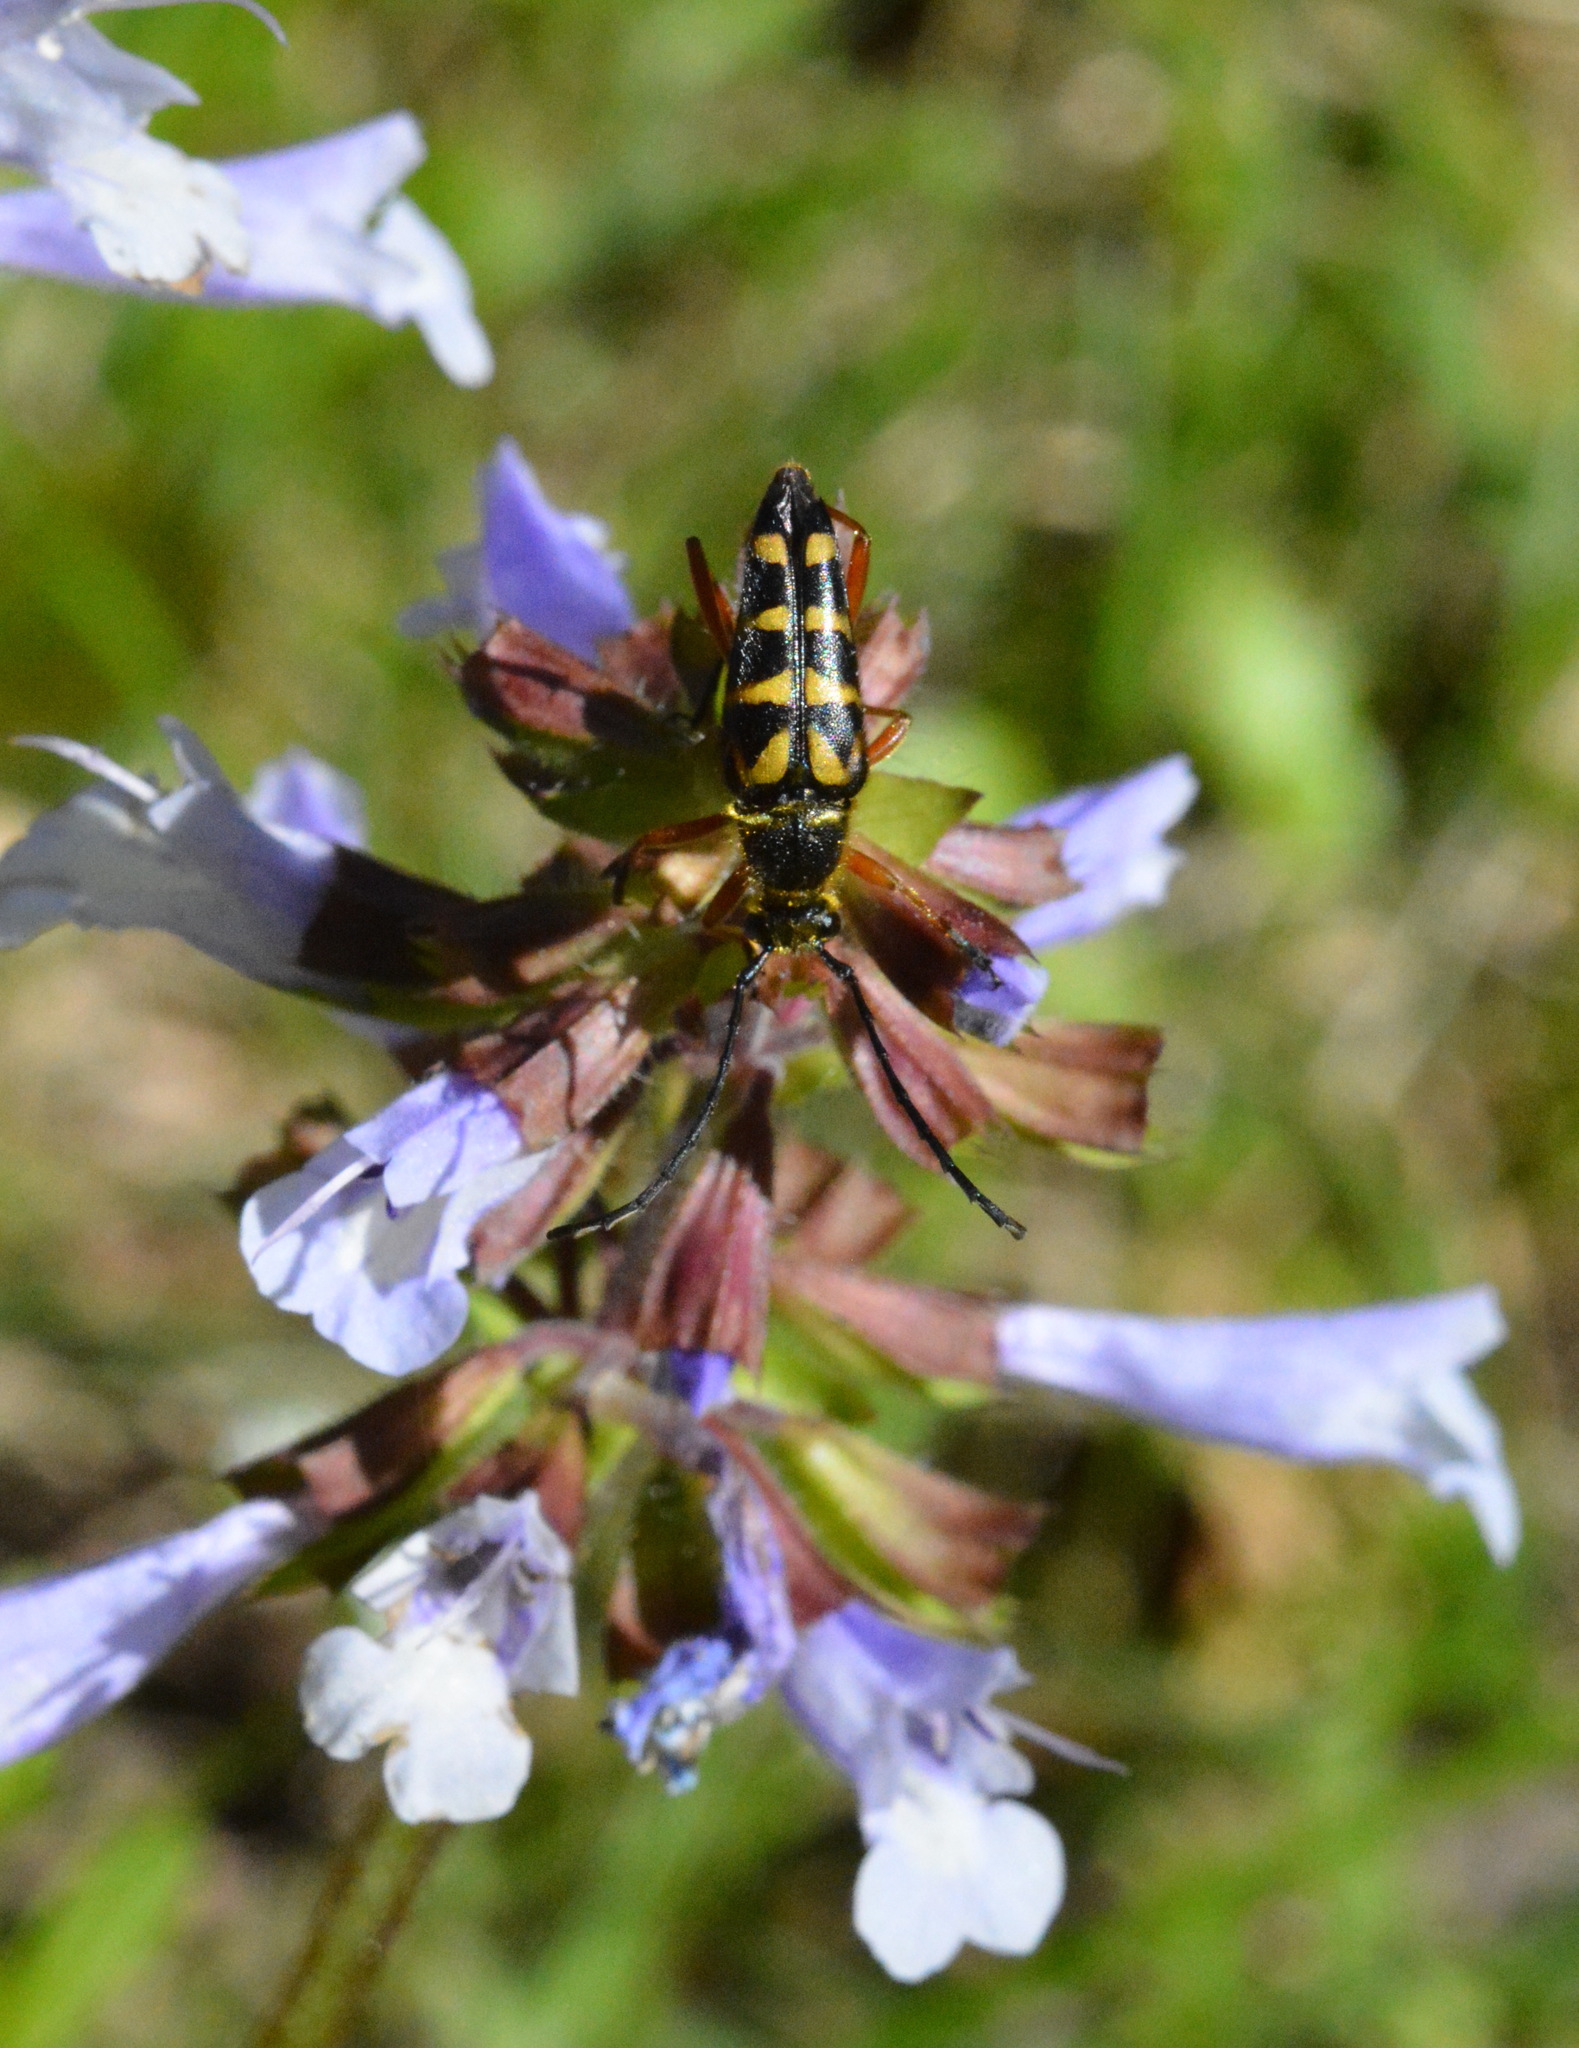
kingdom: Animalia
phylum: Arthropoda
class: Insecta
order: Coleoptera
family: Cerambycidae
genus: Typocerus
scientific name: Typocerus zebra
